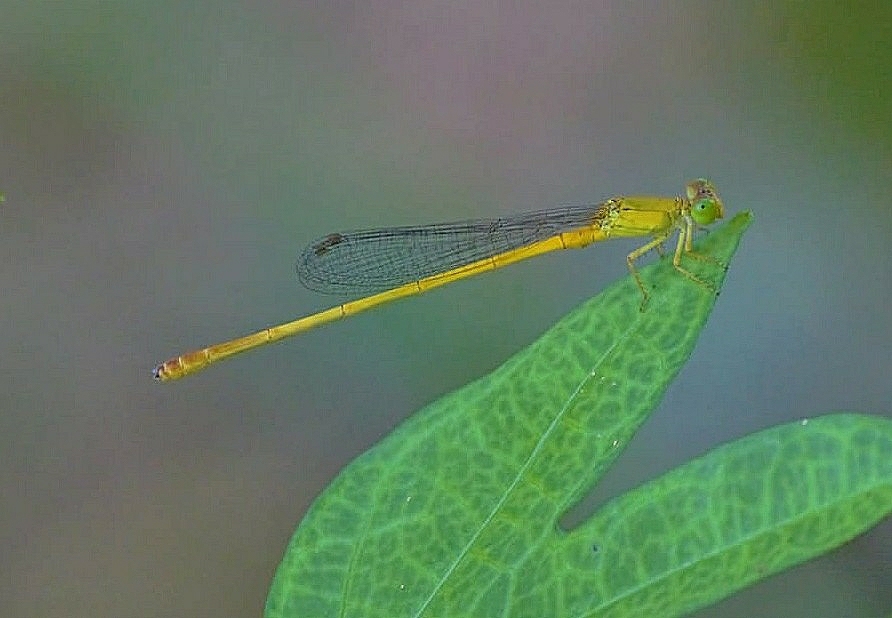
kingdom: Animalia
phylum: Arthropoda
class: Insecta
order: Odonata
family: Coenagrionidae
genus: Ceriagrion
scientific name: Ceriagrion chromothorax
